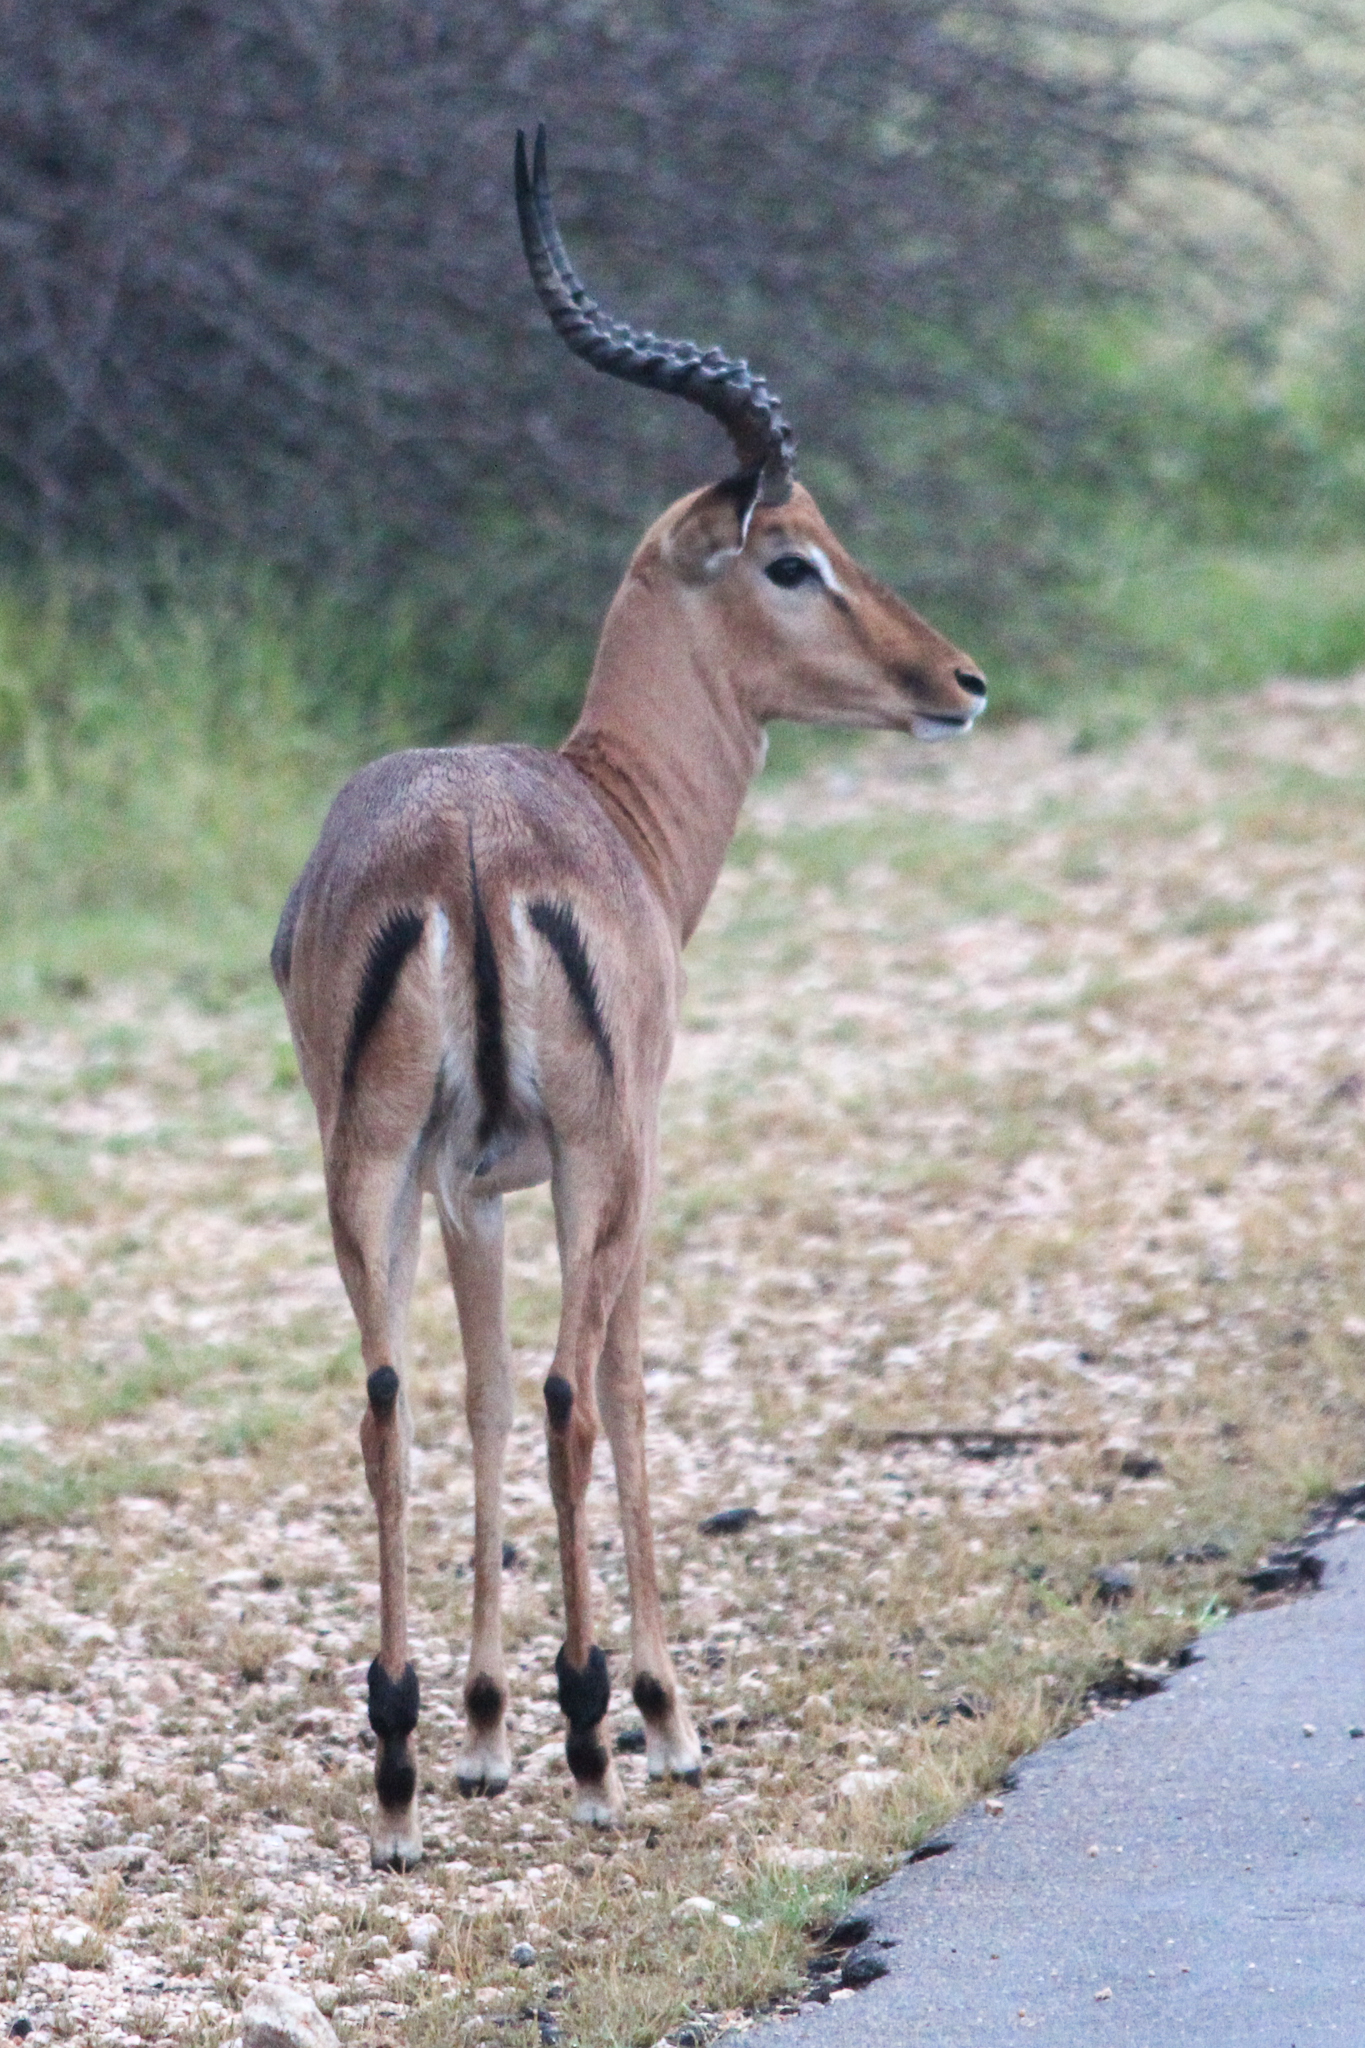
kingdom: Animalia
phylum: Chordata
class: Mammalia
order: Artiodactyla
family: Bovidae
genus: Aepyceros
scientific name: Aepyceros melampus
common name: Impala
